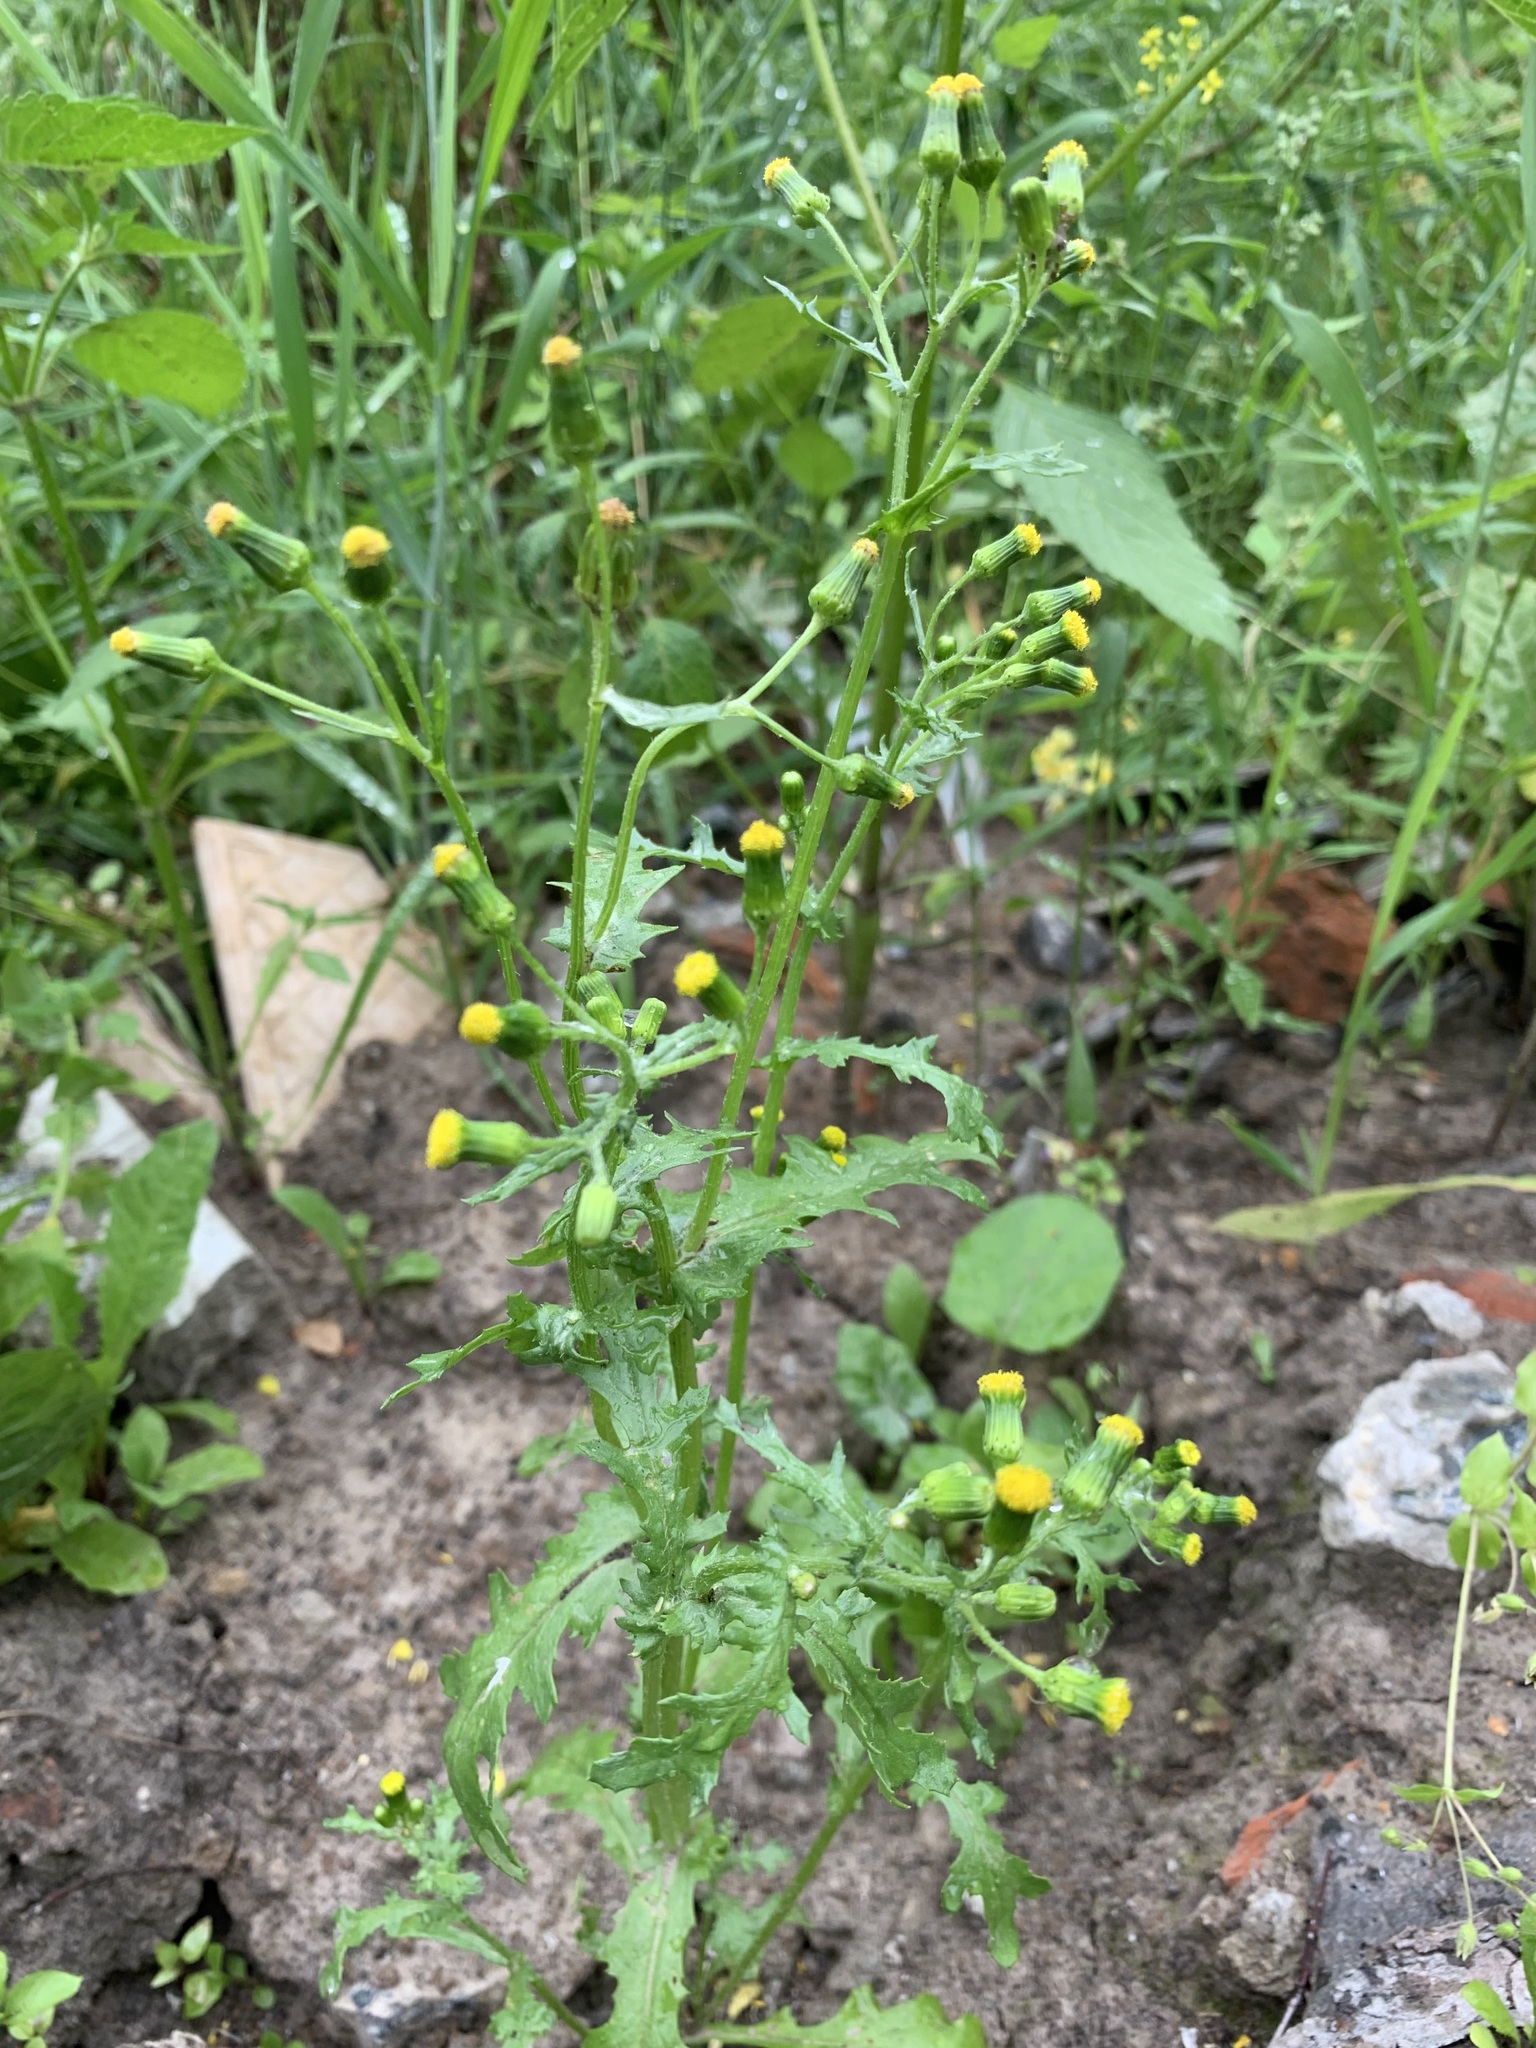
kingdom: Plantae
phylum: Tracheophyta
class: Magnoliopsida
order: Asterales
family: Asteraceae
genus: Senecio
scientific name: Senecio vulgaris
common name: Old-man-in-the-spring
